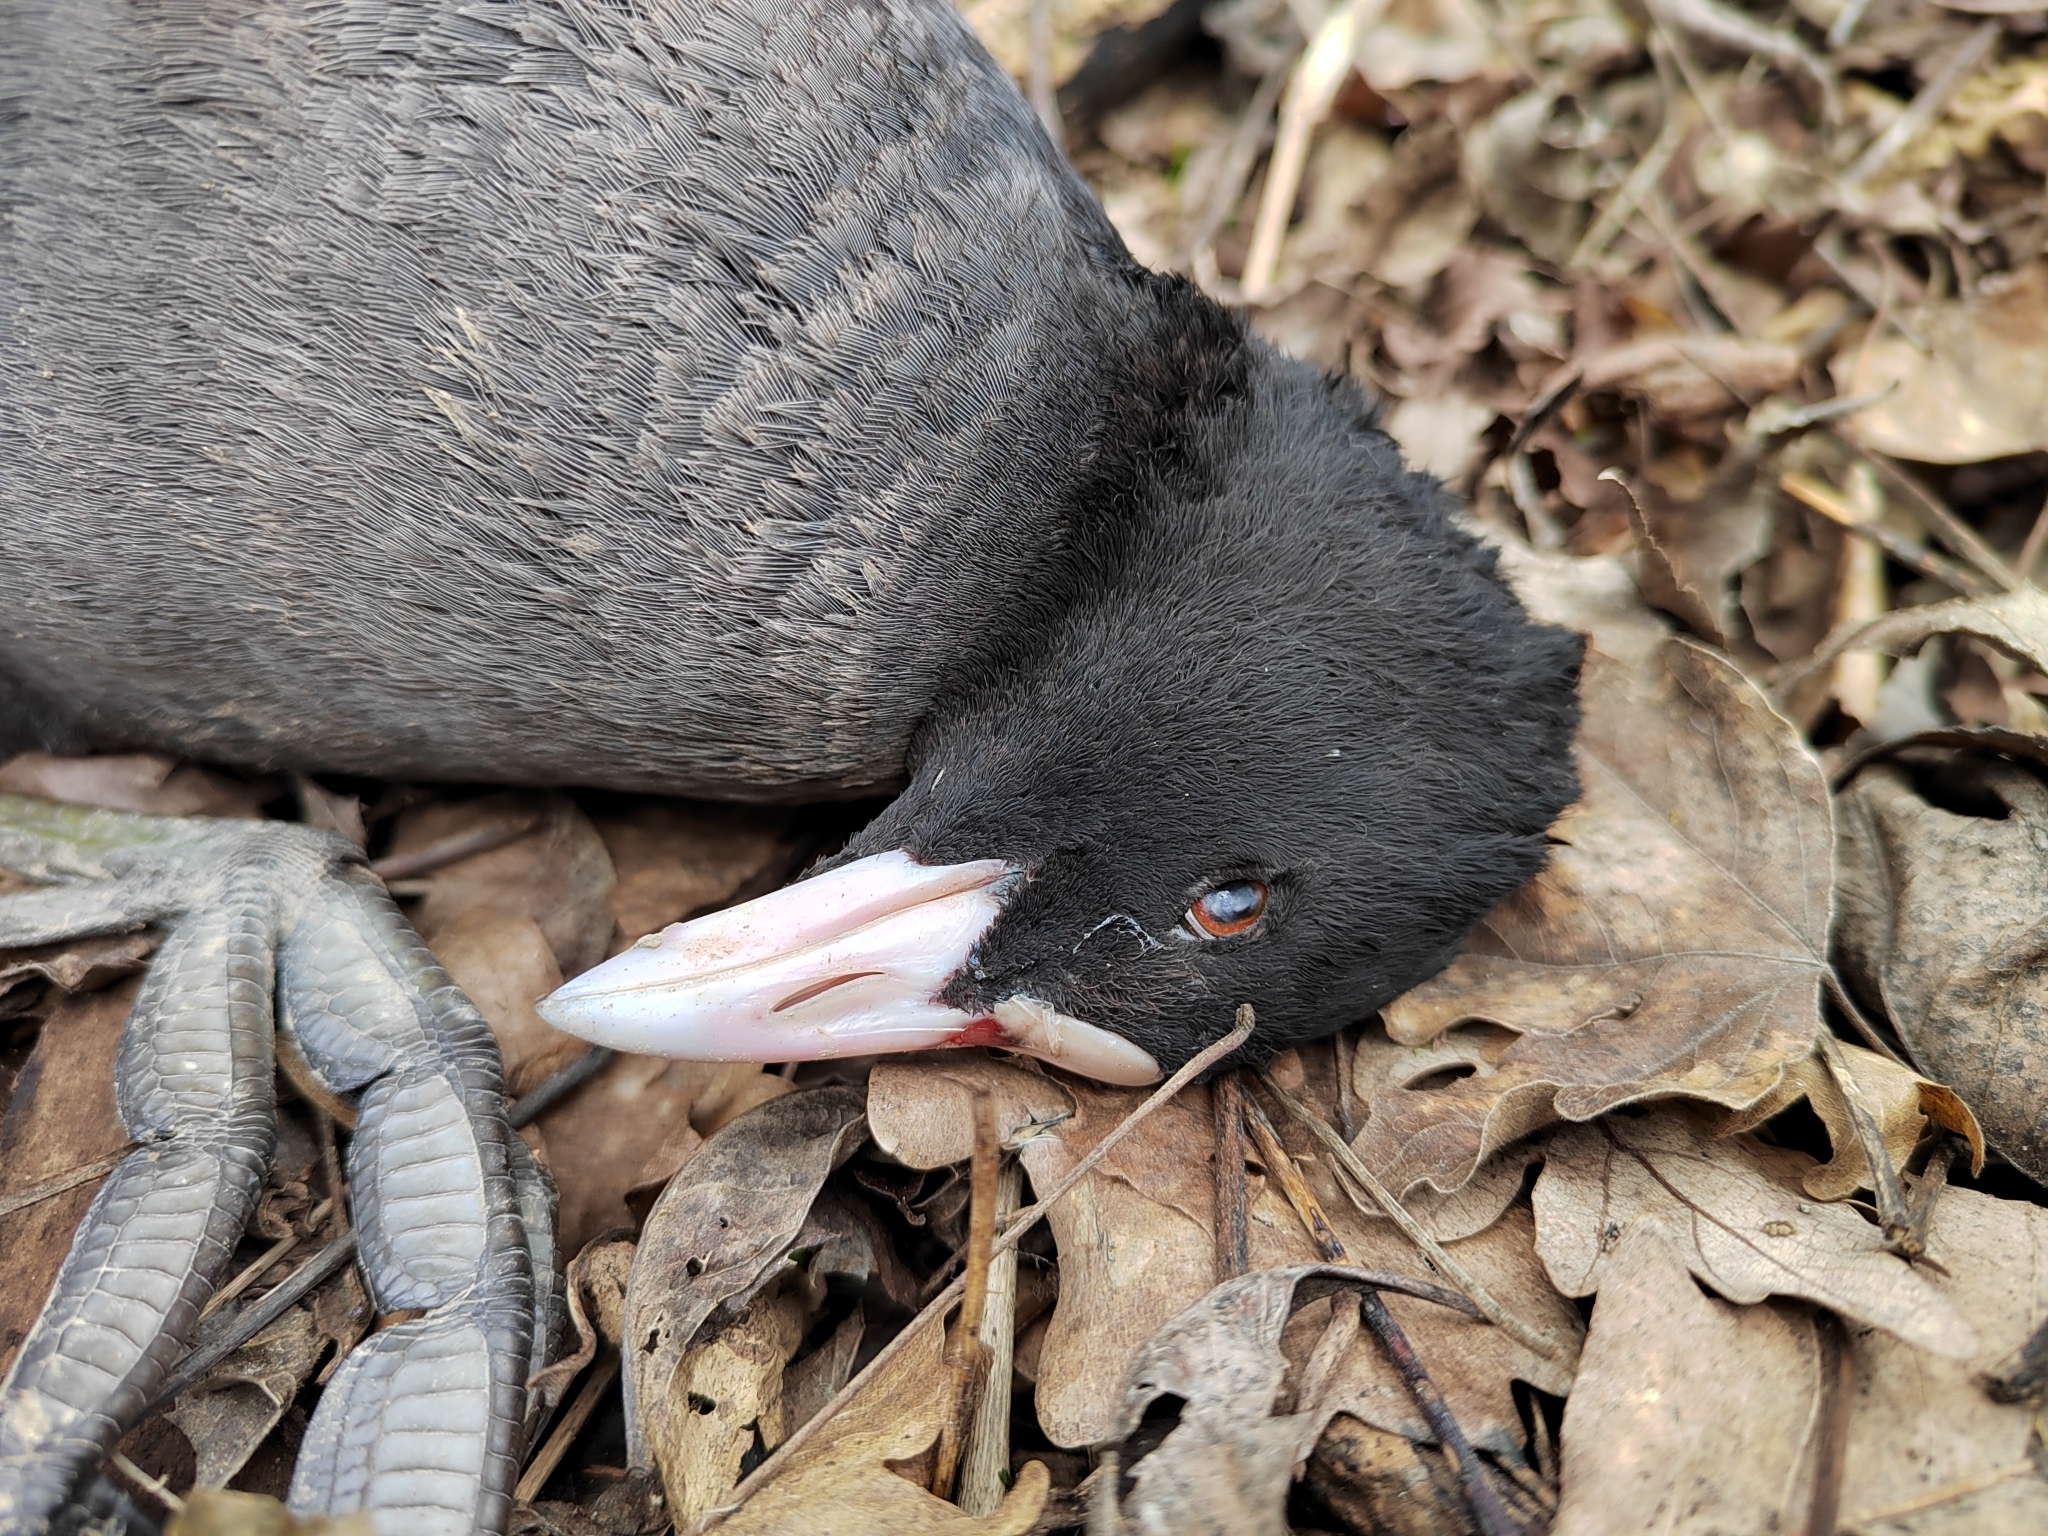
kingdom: Animalia
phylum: Chordata
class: Aves
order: Gruiformes
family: Rallidae
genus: Fulica
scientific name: Fulica atra
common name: Eurasian coot
